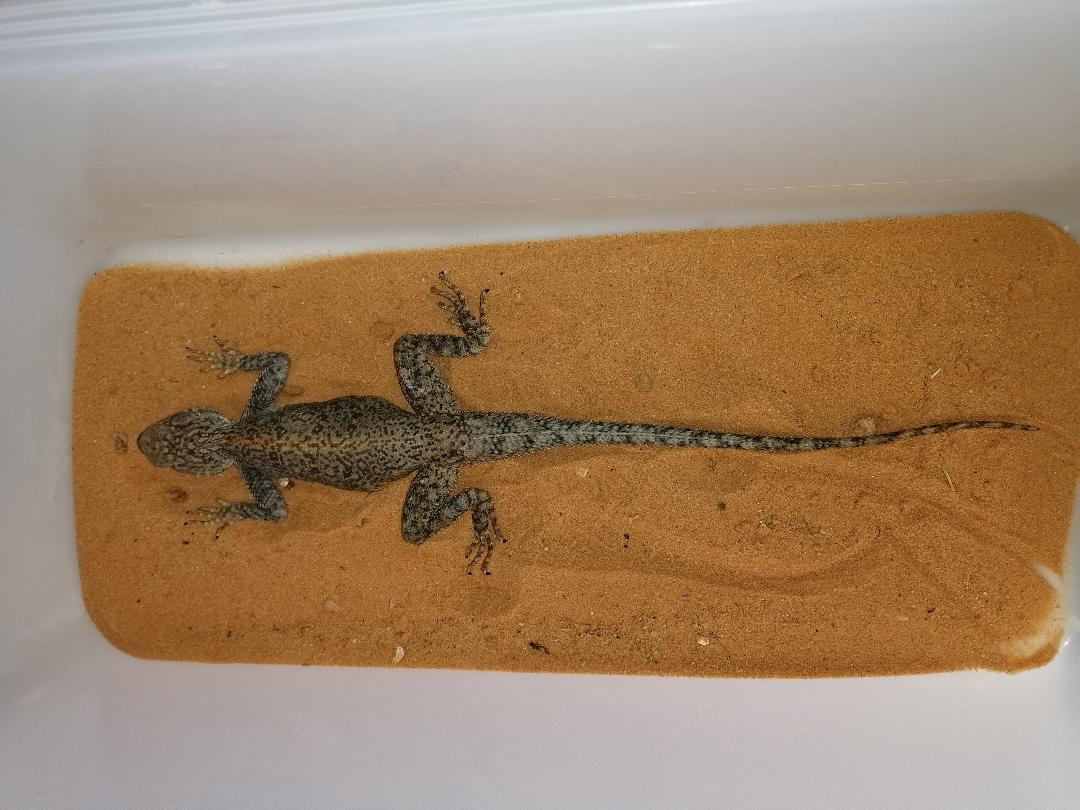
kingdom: Animalia
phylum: Chordata
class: Squamata
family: Agamidae
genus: Agama
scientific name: Agama tassiliensis
